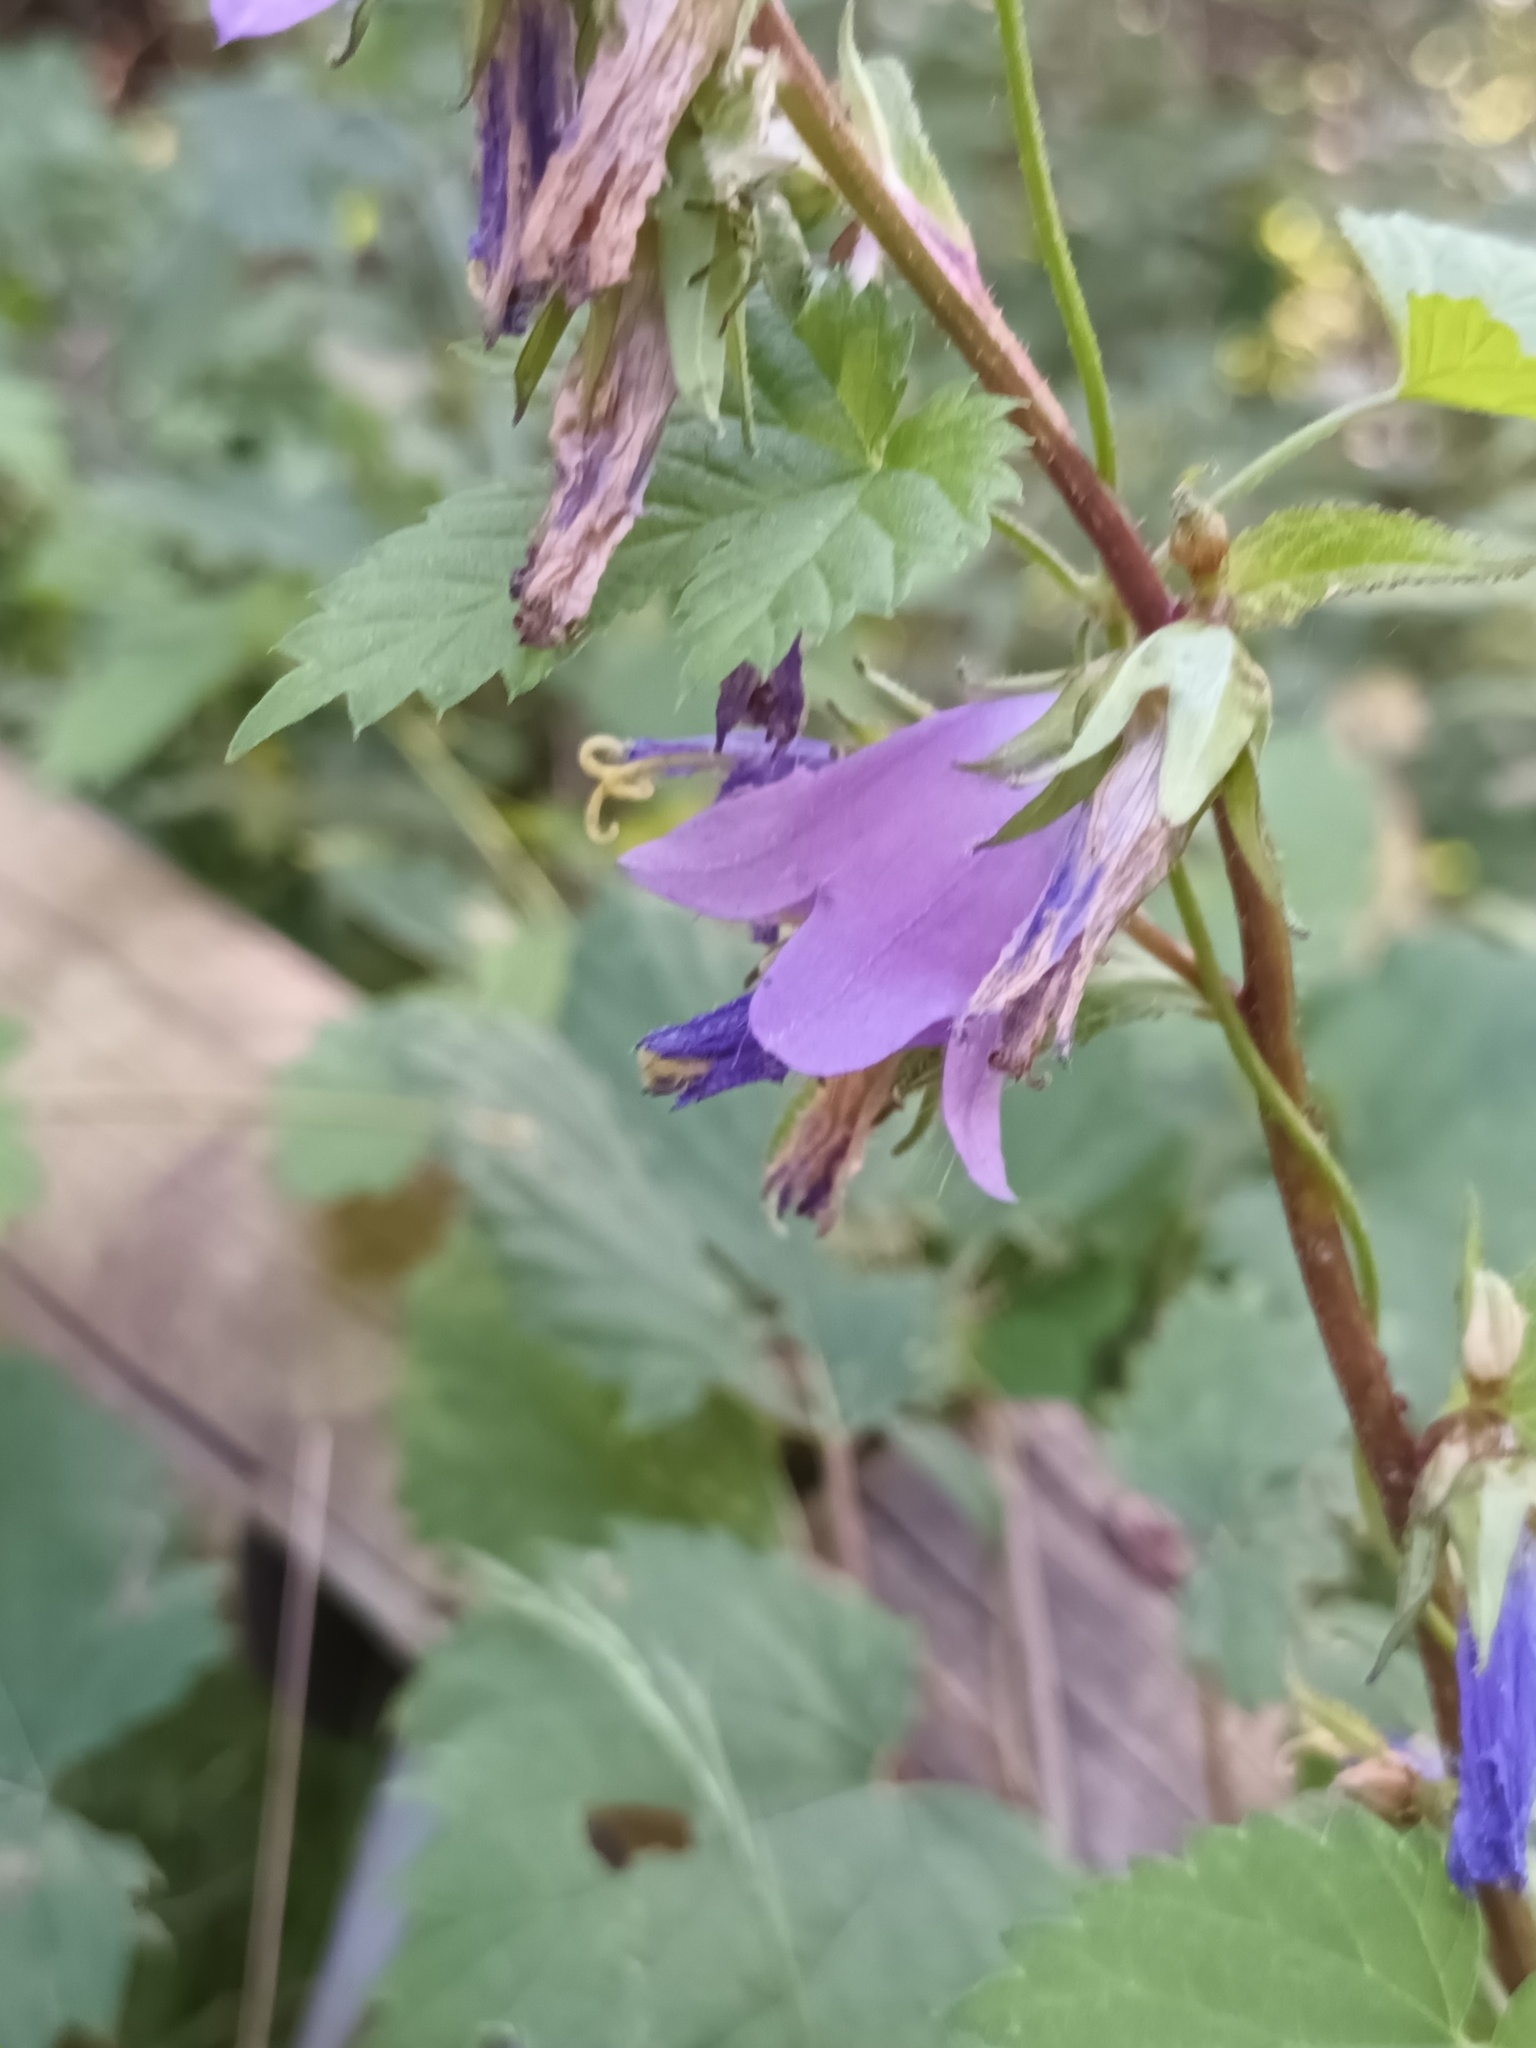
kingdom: Plantae
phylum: Tracheophyta
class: Magnoliopsida
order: Asterales
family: Campanulaceae
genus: Campanula
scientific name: Campanula trachelium
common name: Nettle-leaved bellflower
